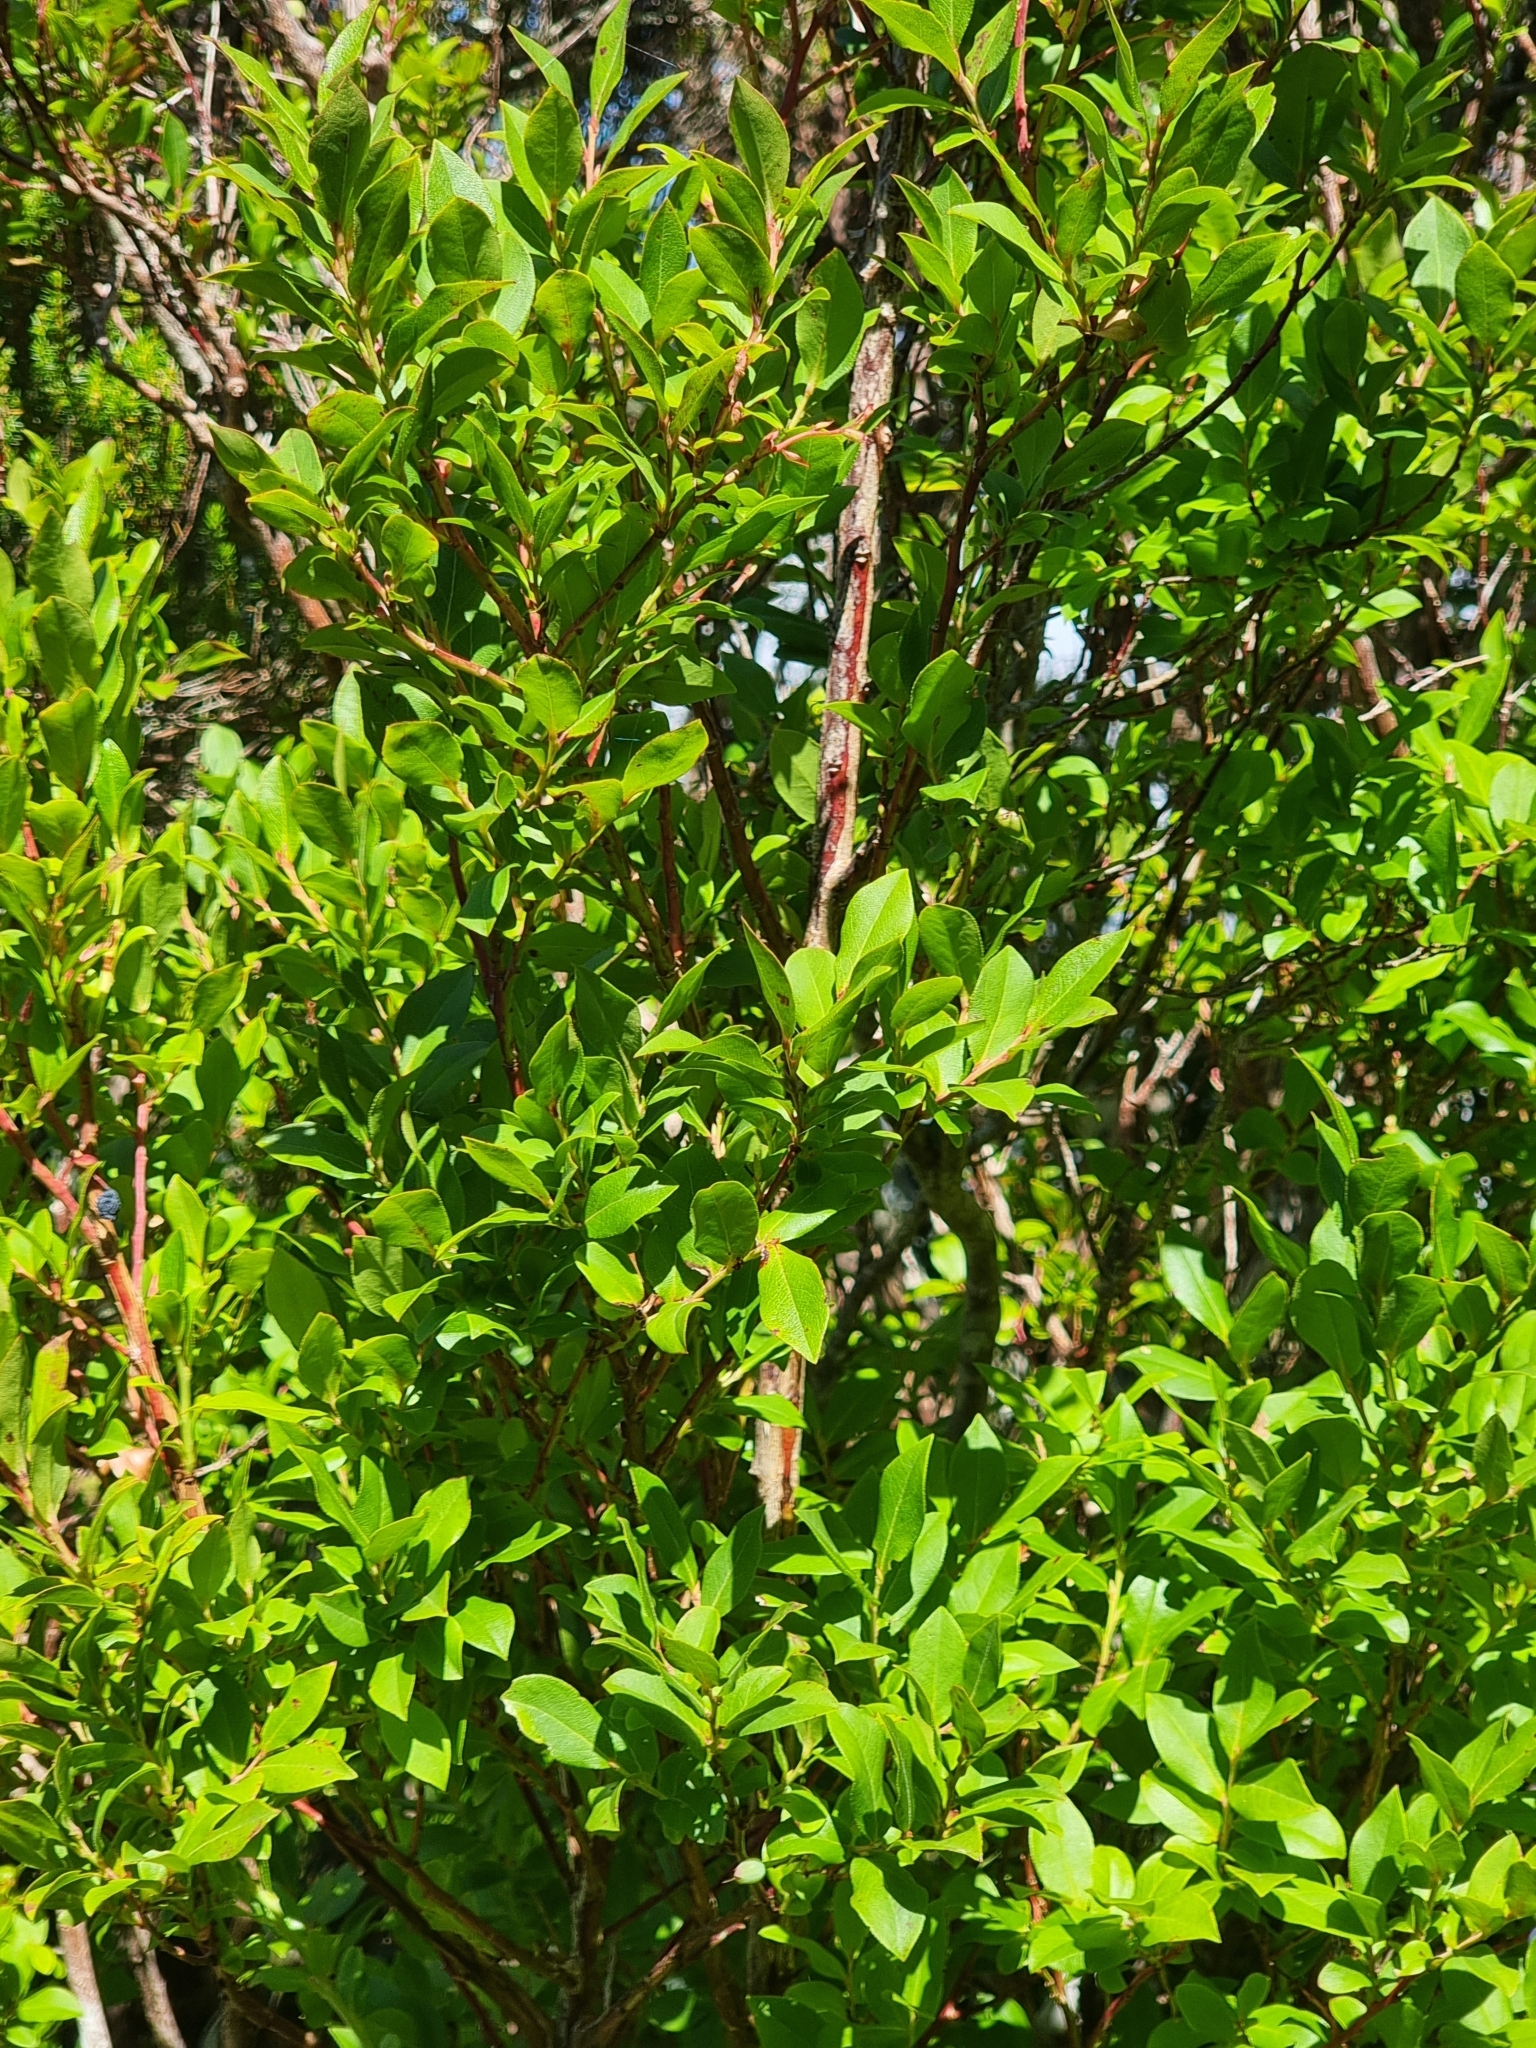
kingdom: Plantae
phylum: Tracheophyta
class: Magnoliopsida
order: Ericales
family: Ericaceae
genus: Vaccinium
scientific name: Vaccinium padifolium
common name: Madeiran blueberry
